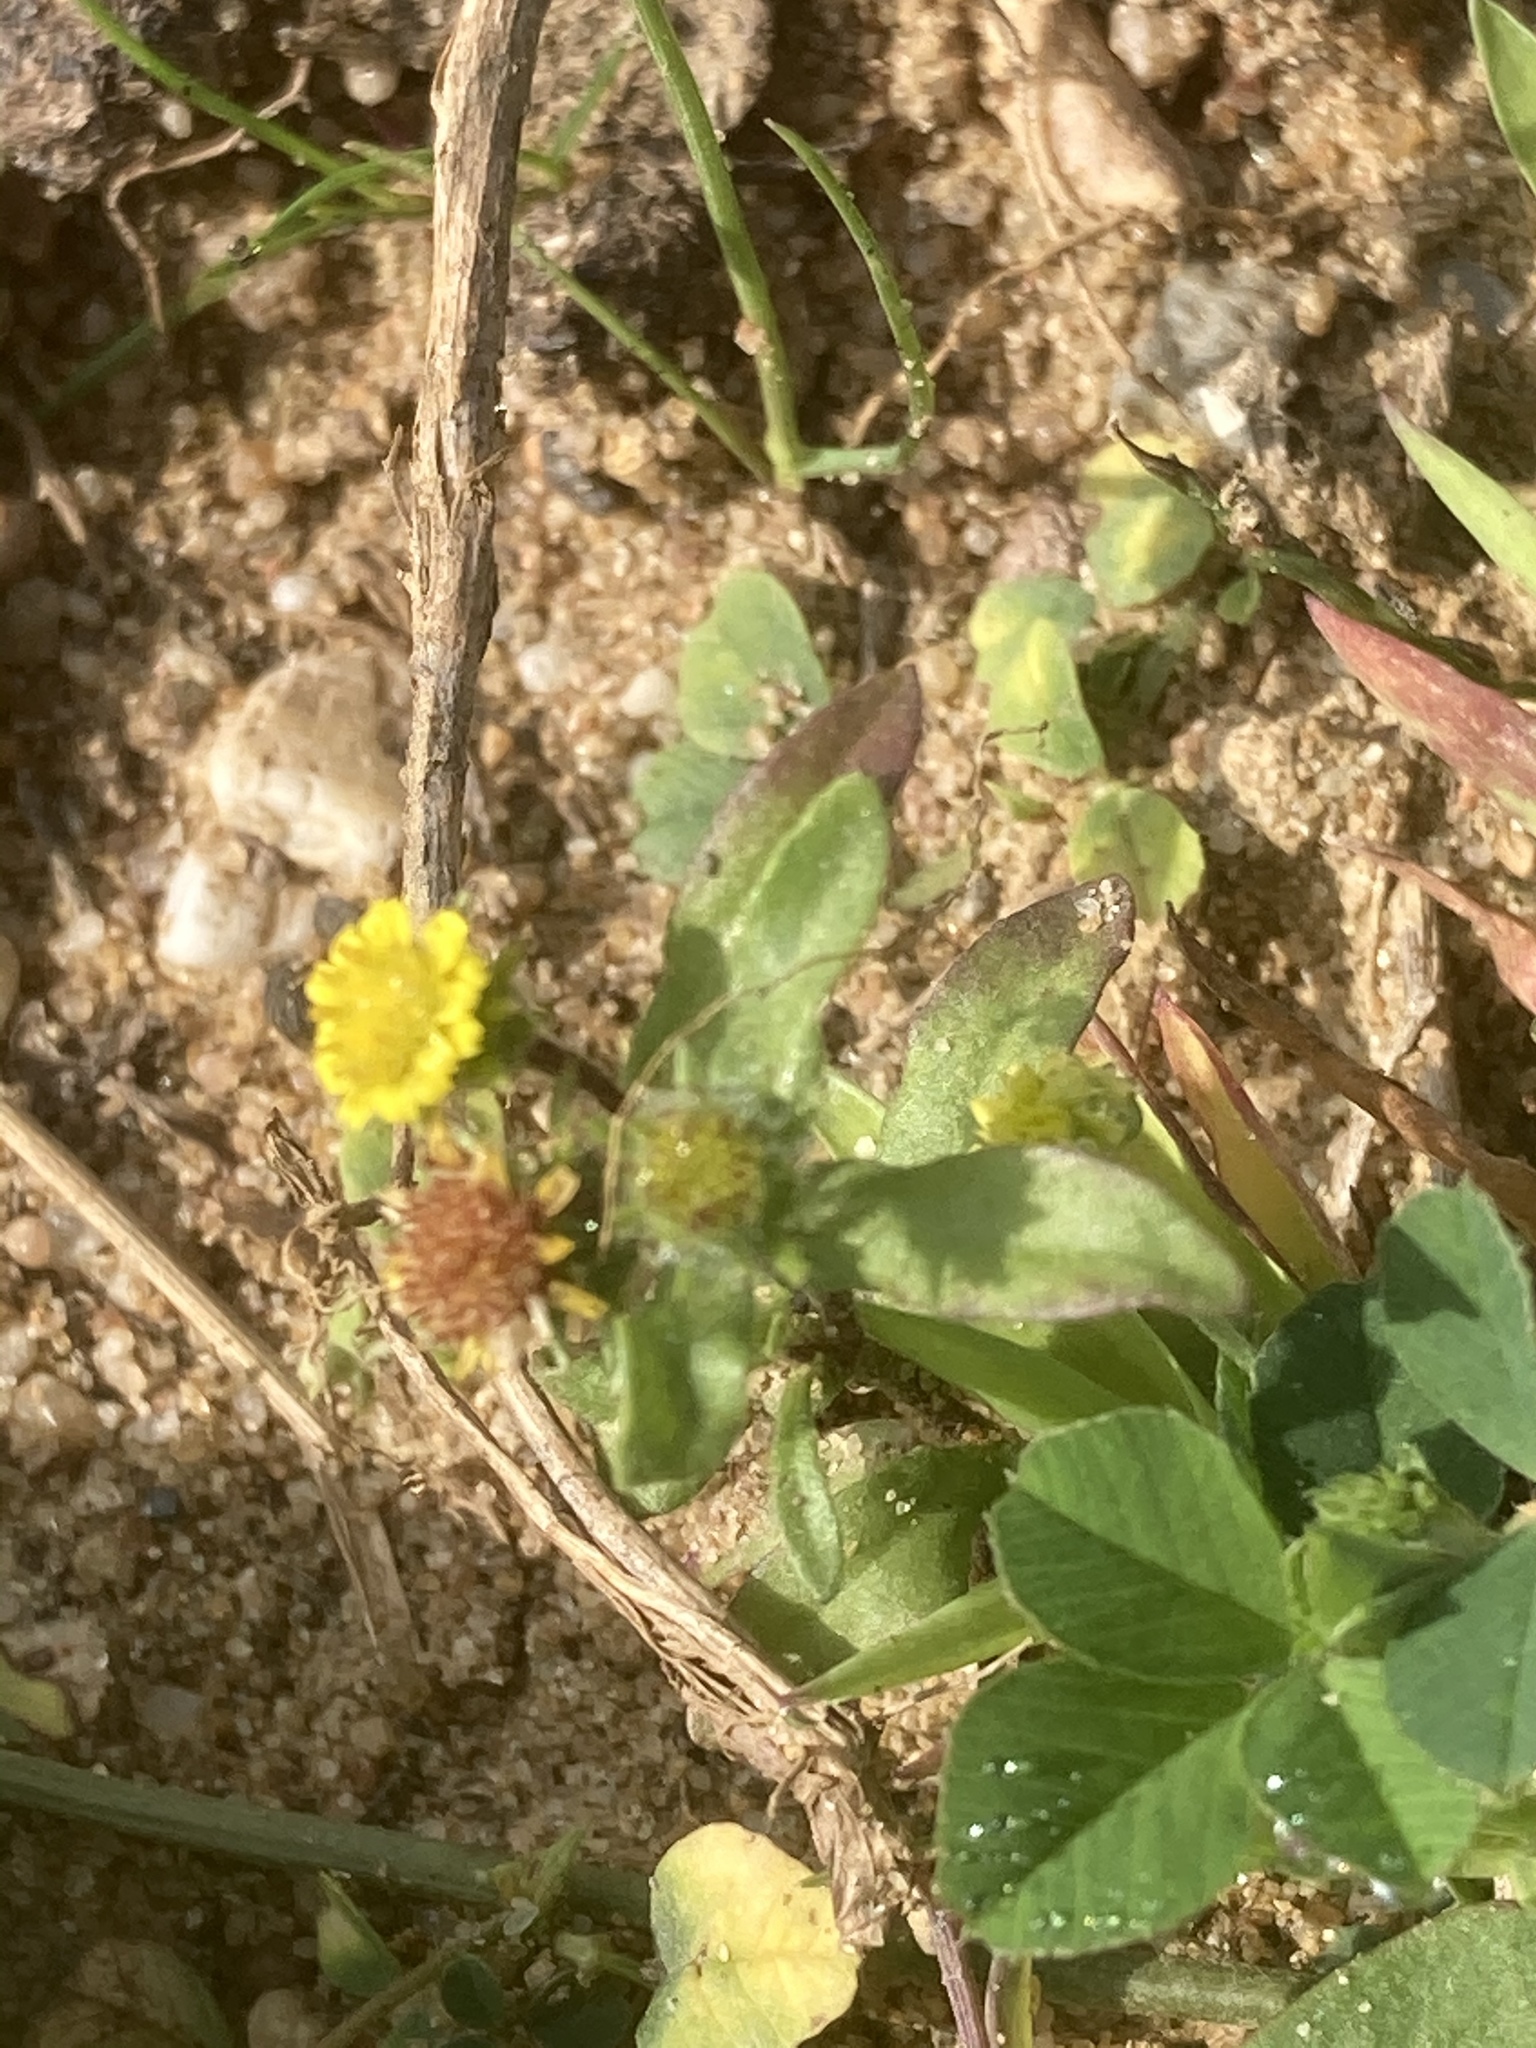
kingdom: Plantae
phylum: Tracheophyta
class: Magnoliopsida
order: Asterales
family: Asteraceae
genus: Pulicaria
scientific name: Pulicaria vulgaris
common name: Small fleabane
